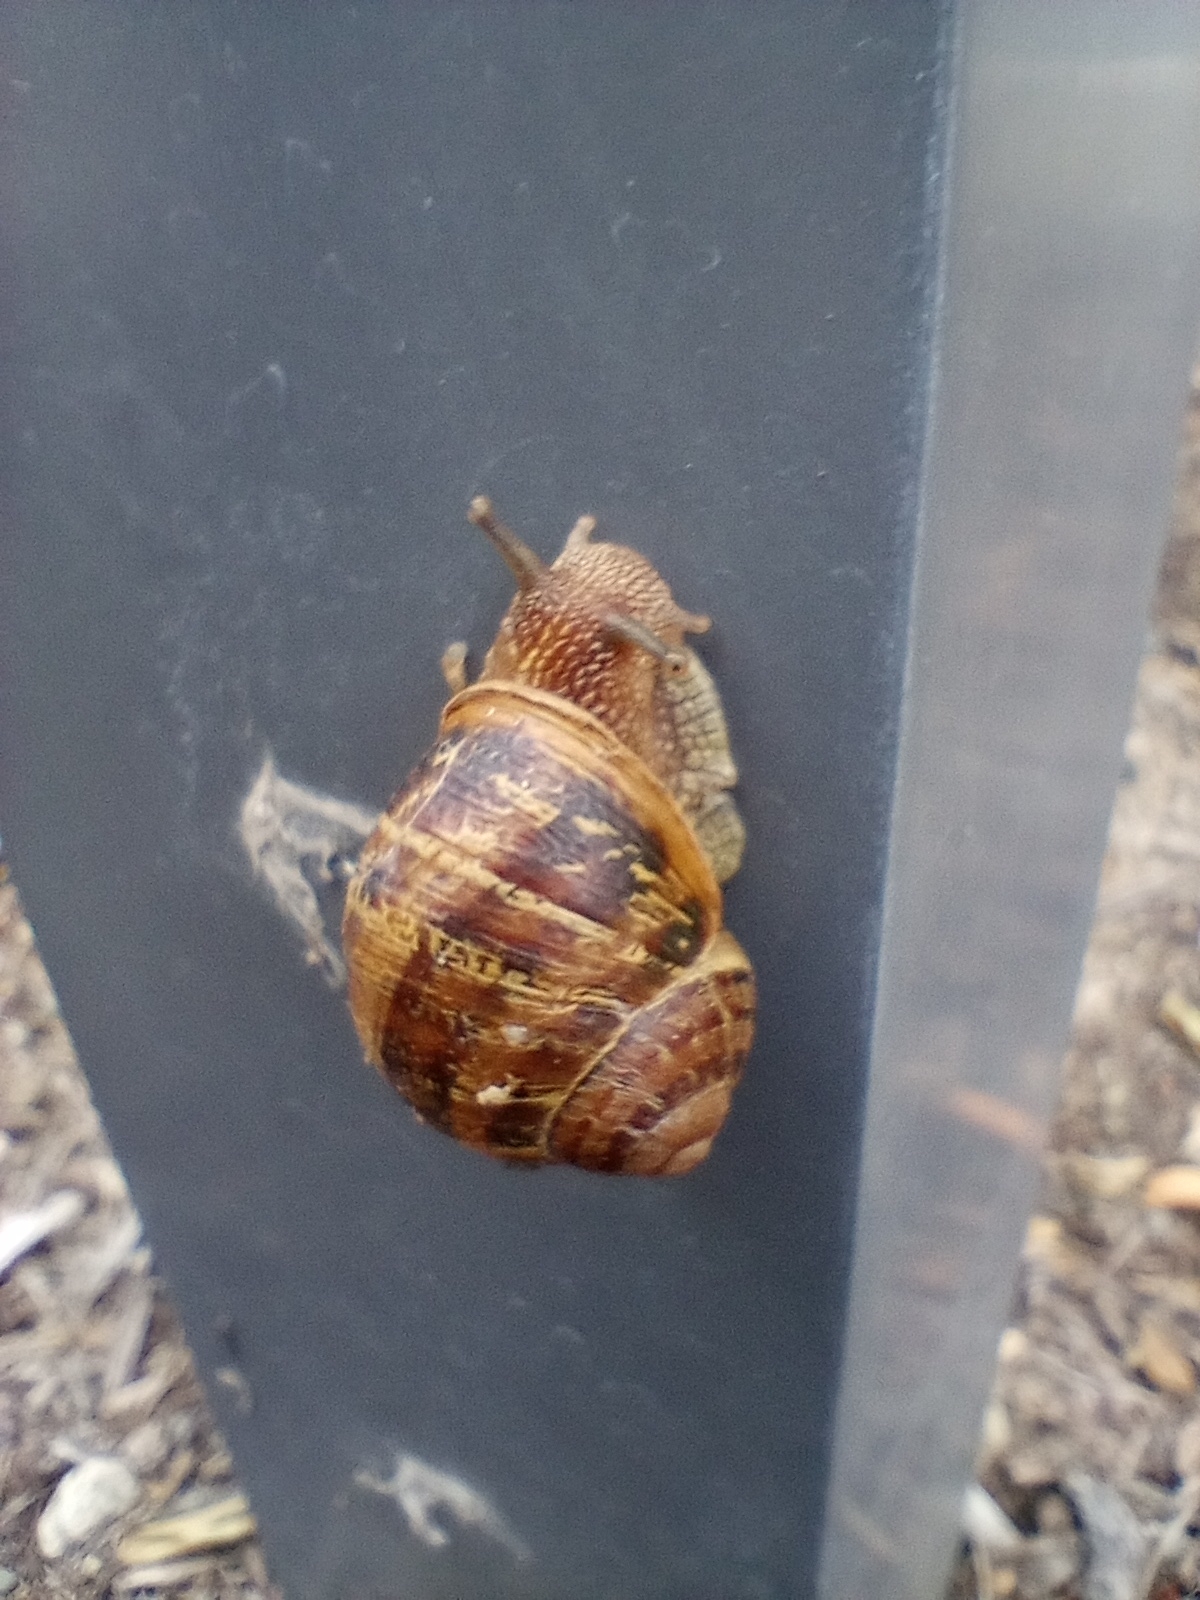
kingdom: Animalia
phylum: Mollusca
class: Gastropoda
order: Stylommatophora
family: Helicidae
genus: Cornu
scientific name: Cornu aspersum
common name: Brown garden snail
